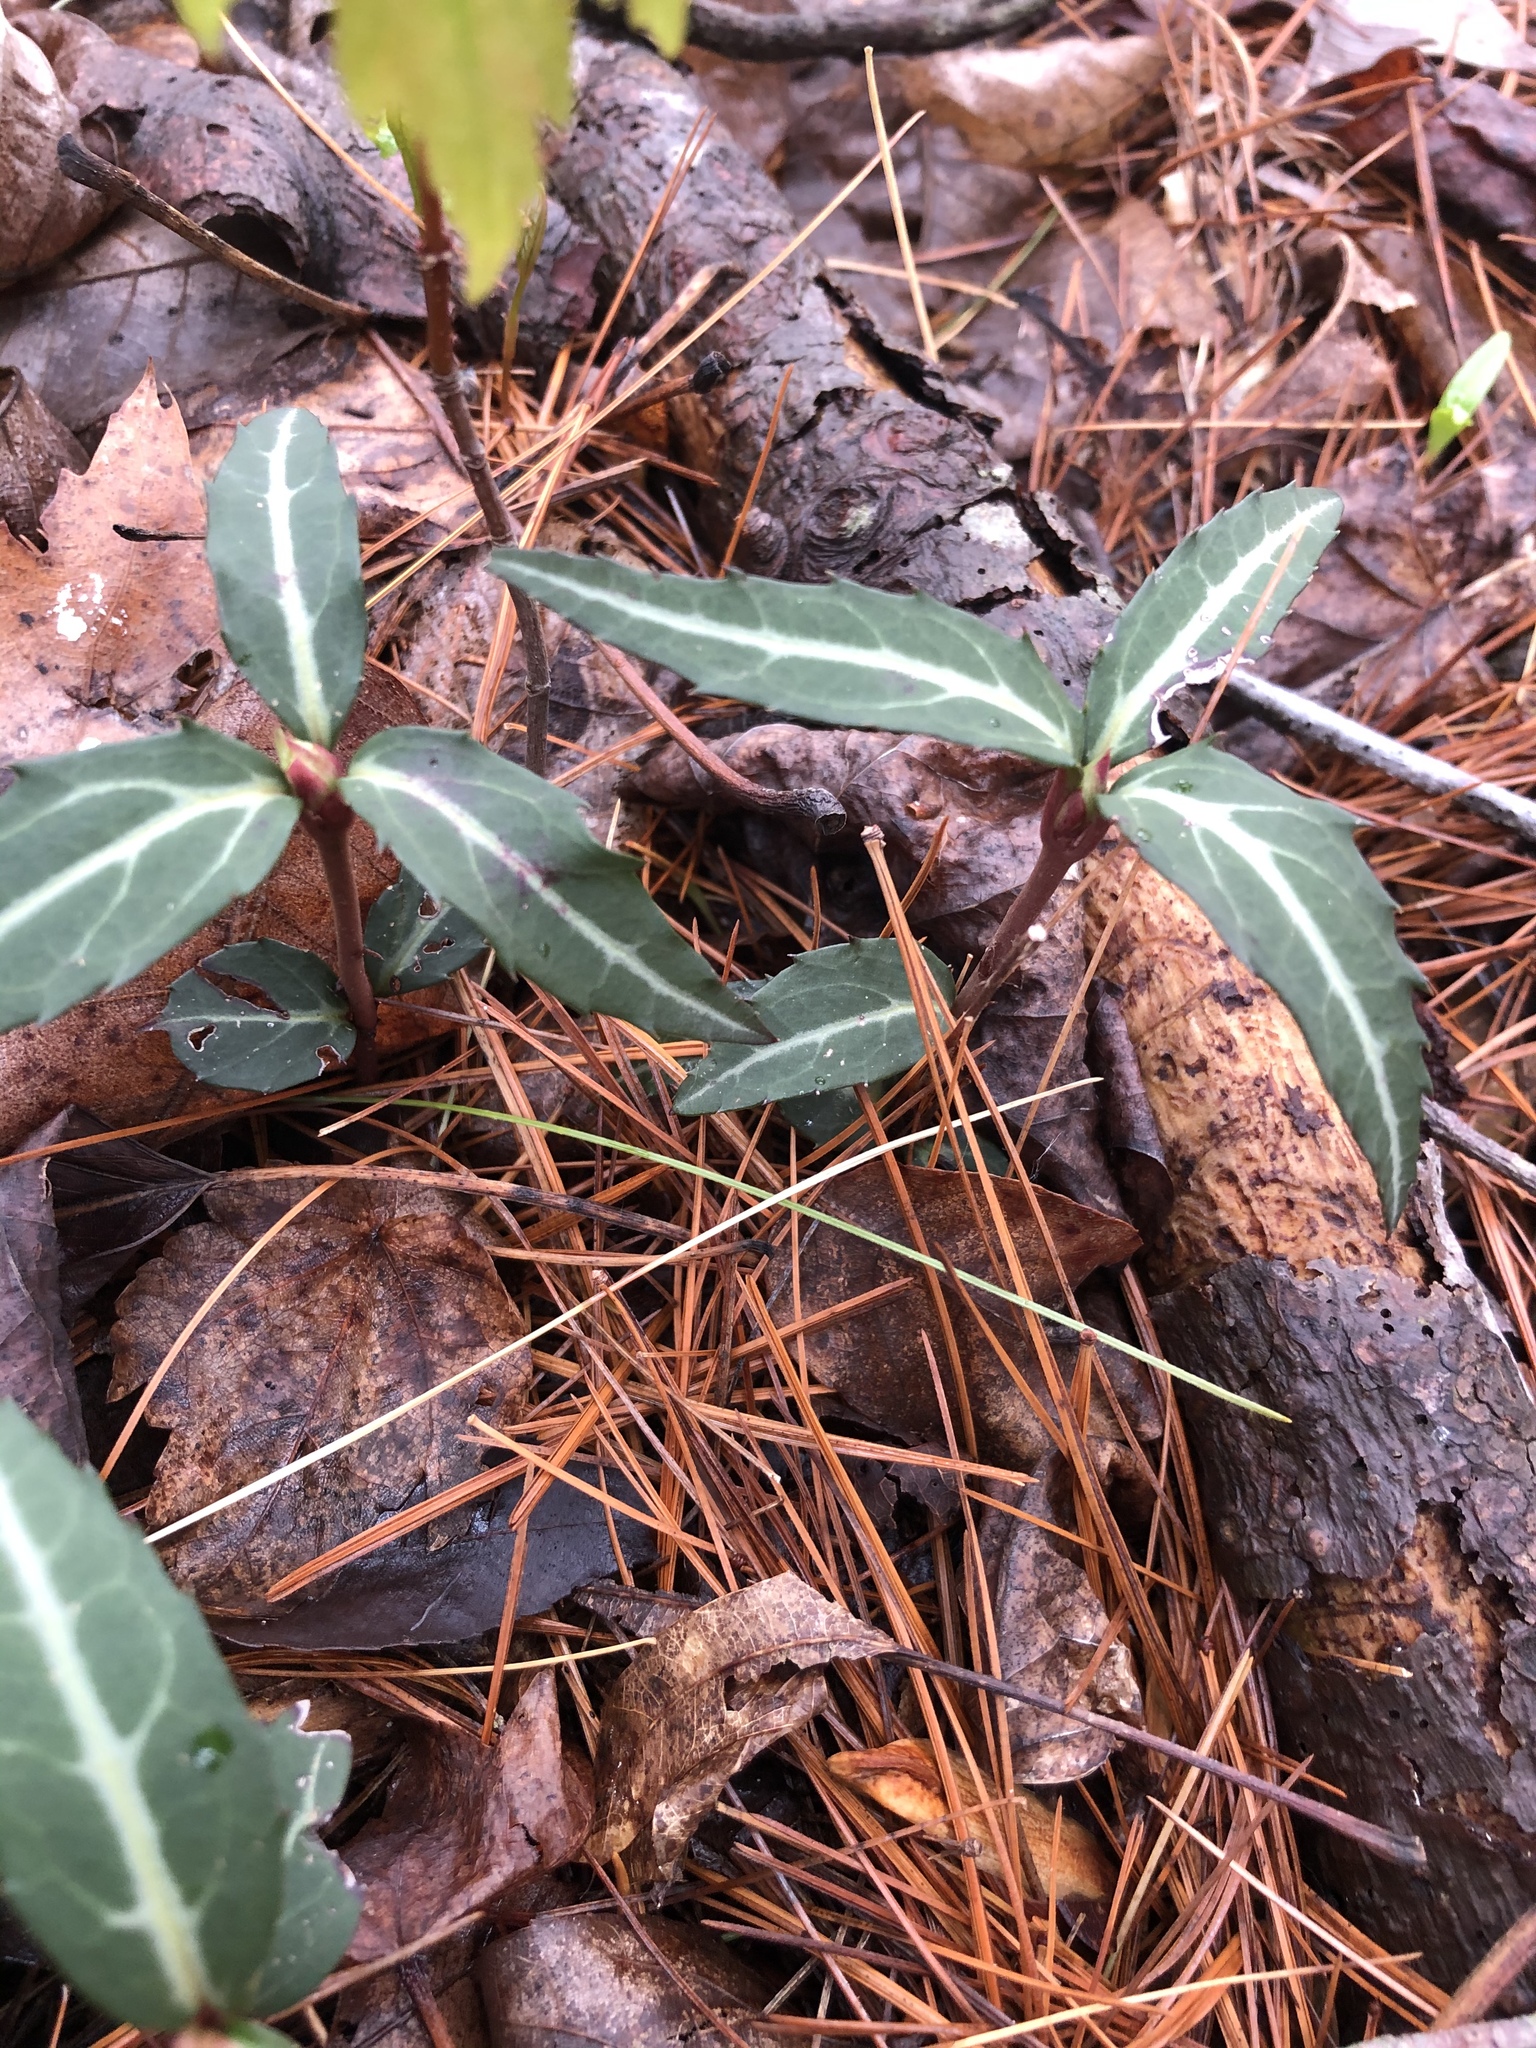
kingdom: Plantae
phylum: Tracheophyta
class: Magnoliopsida
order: Ericales
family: Ericaceae
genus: Chimaphila
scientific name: Chimaphila maculata
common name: Spotted pipsissewa
